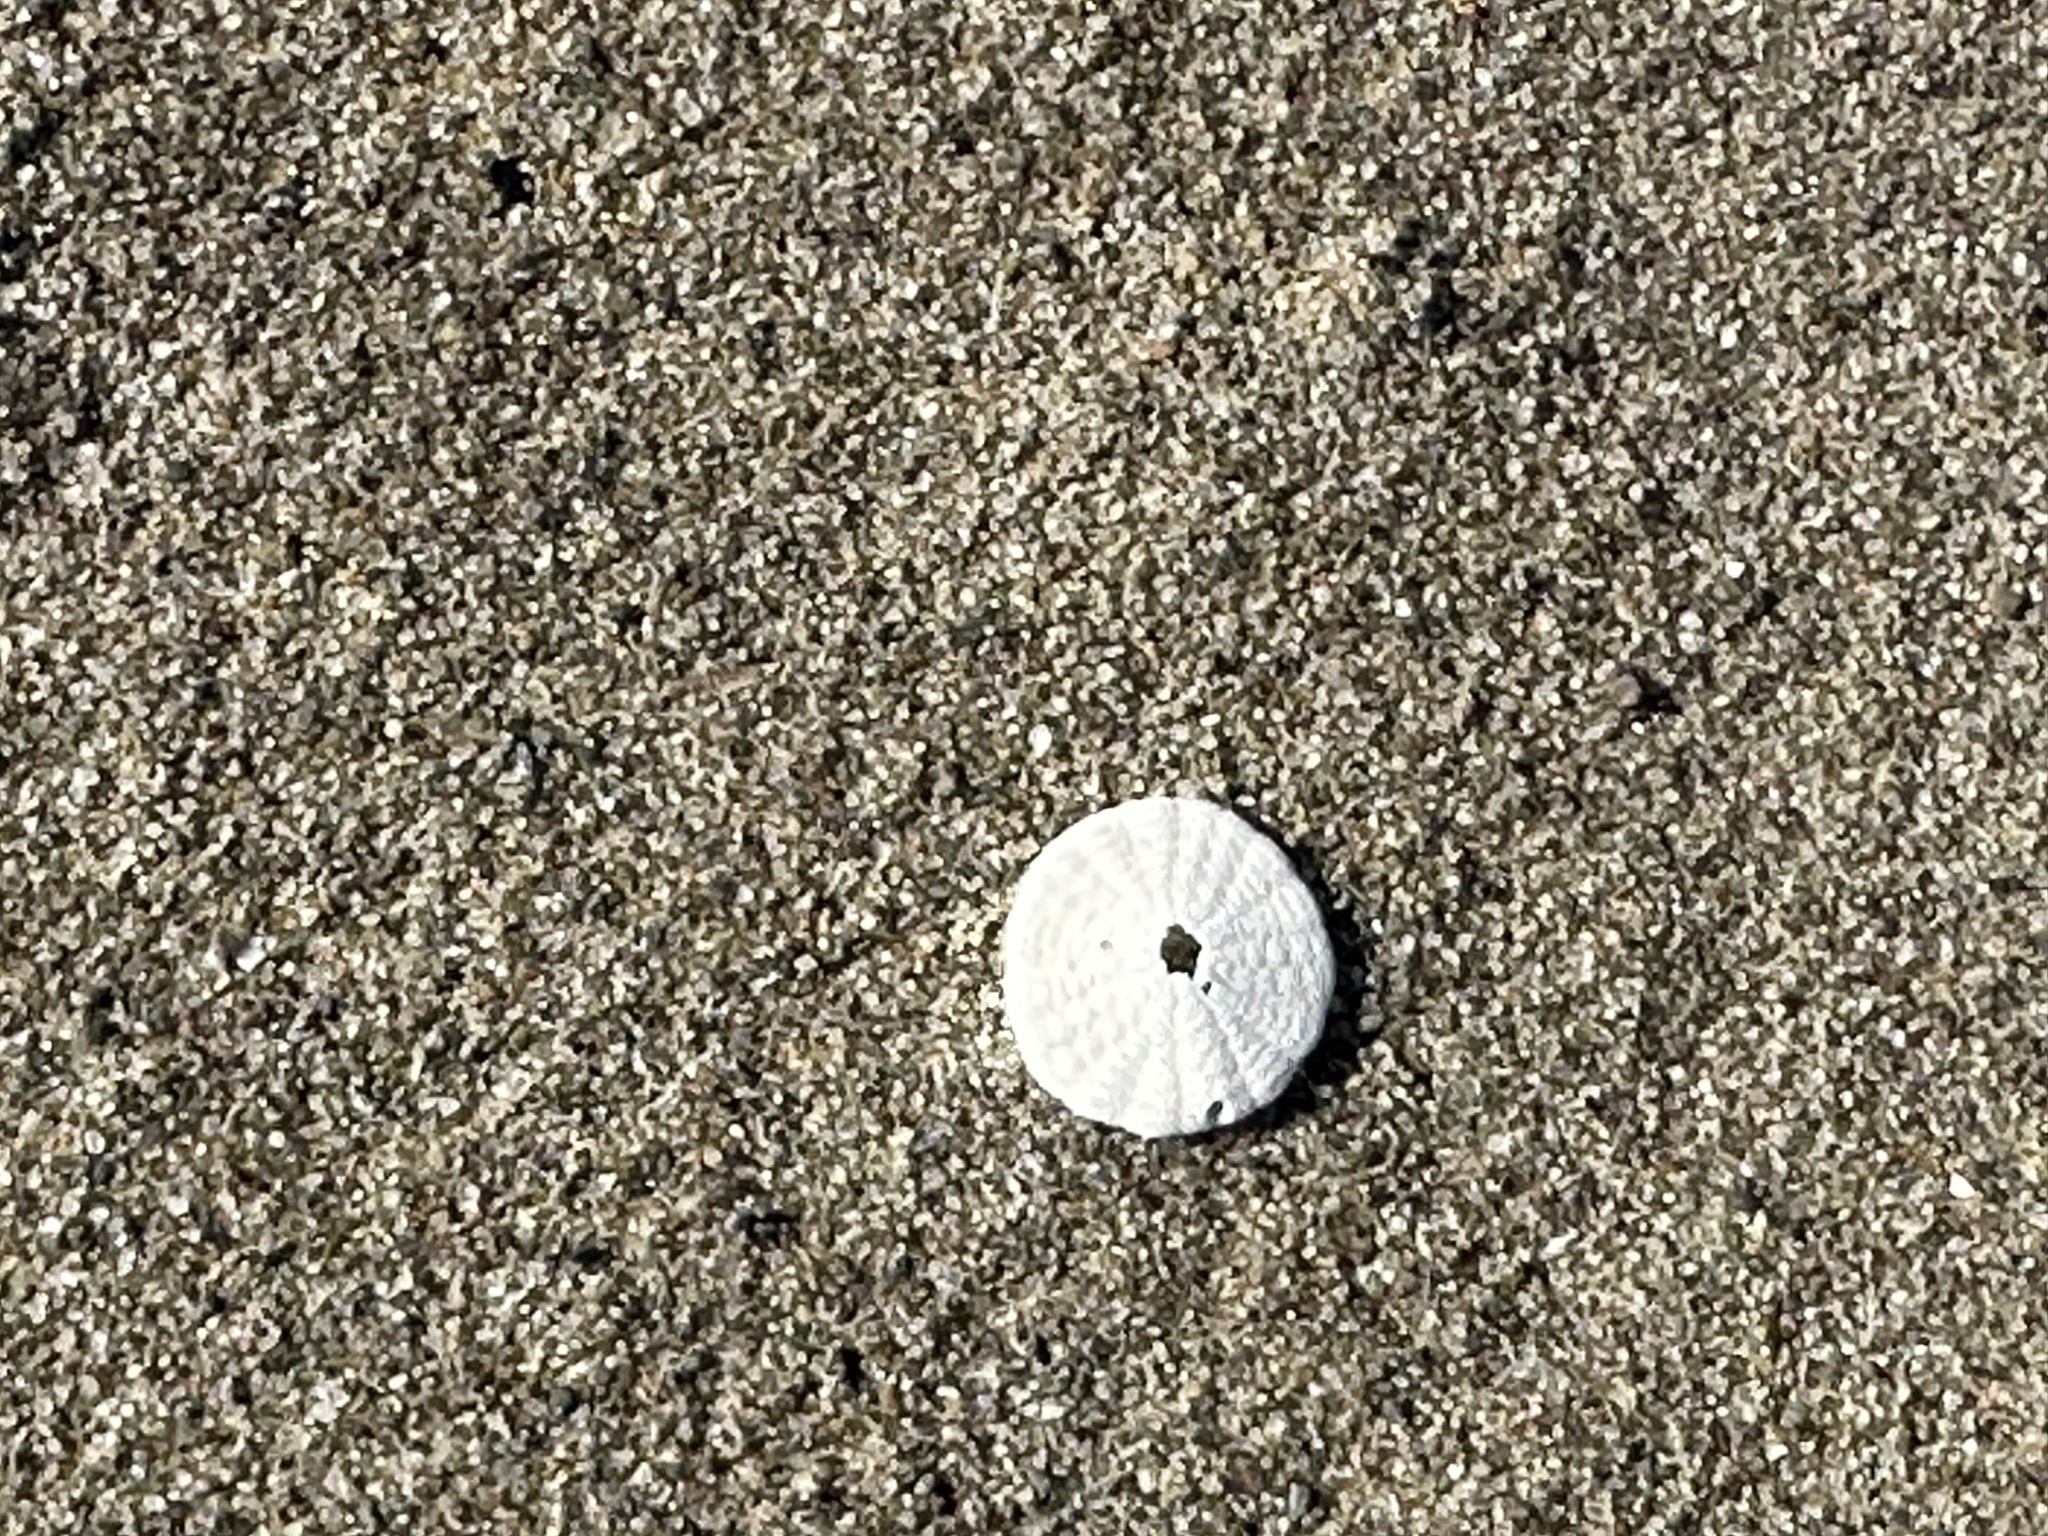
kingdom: Animalia
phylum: Echinodermata
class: Echinoidea
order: Echinolampadacea
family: Echinarachniidae
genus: Echinarachnius
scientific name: Echinarachnius parma
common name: Common sand dollar
